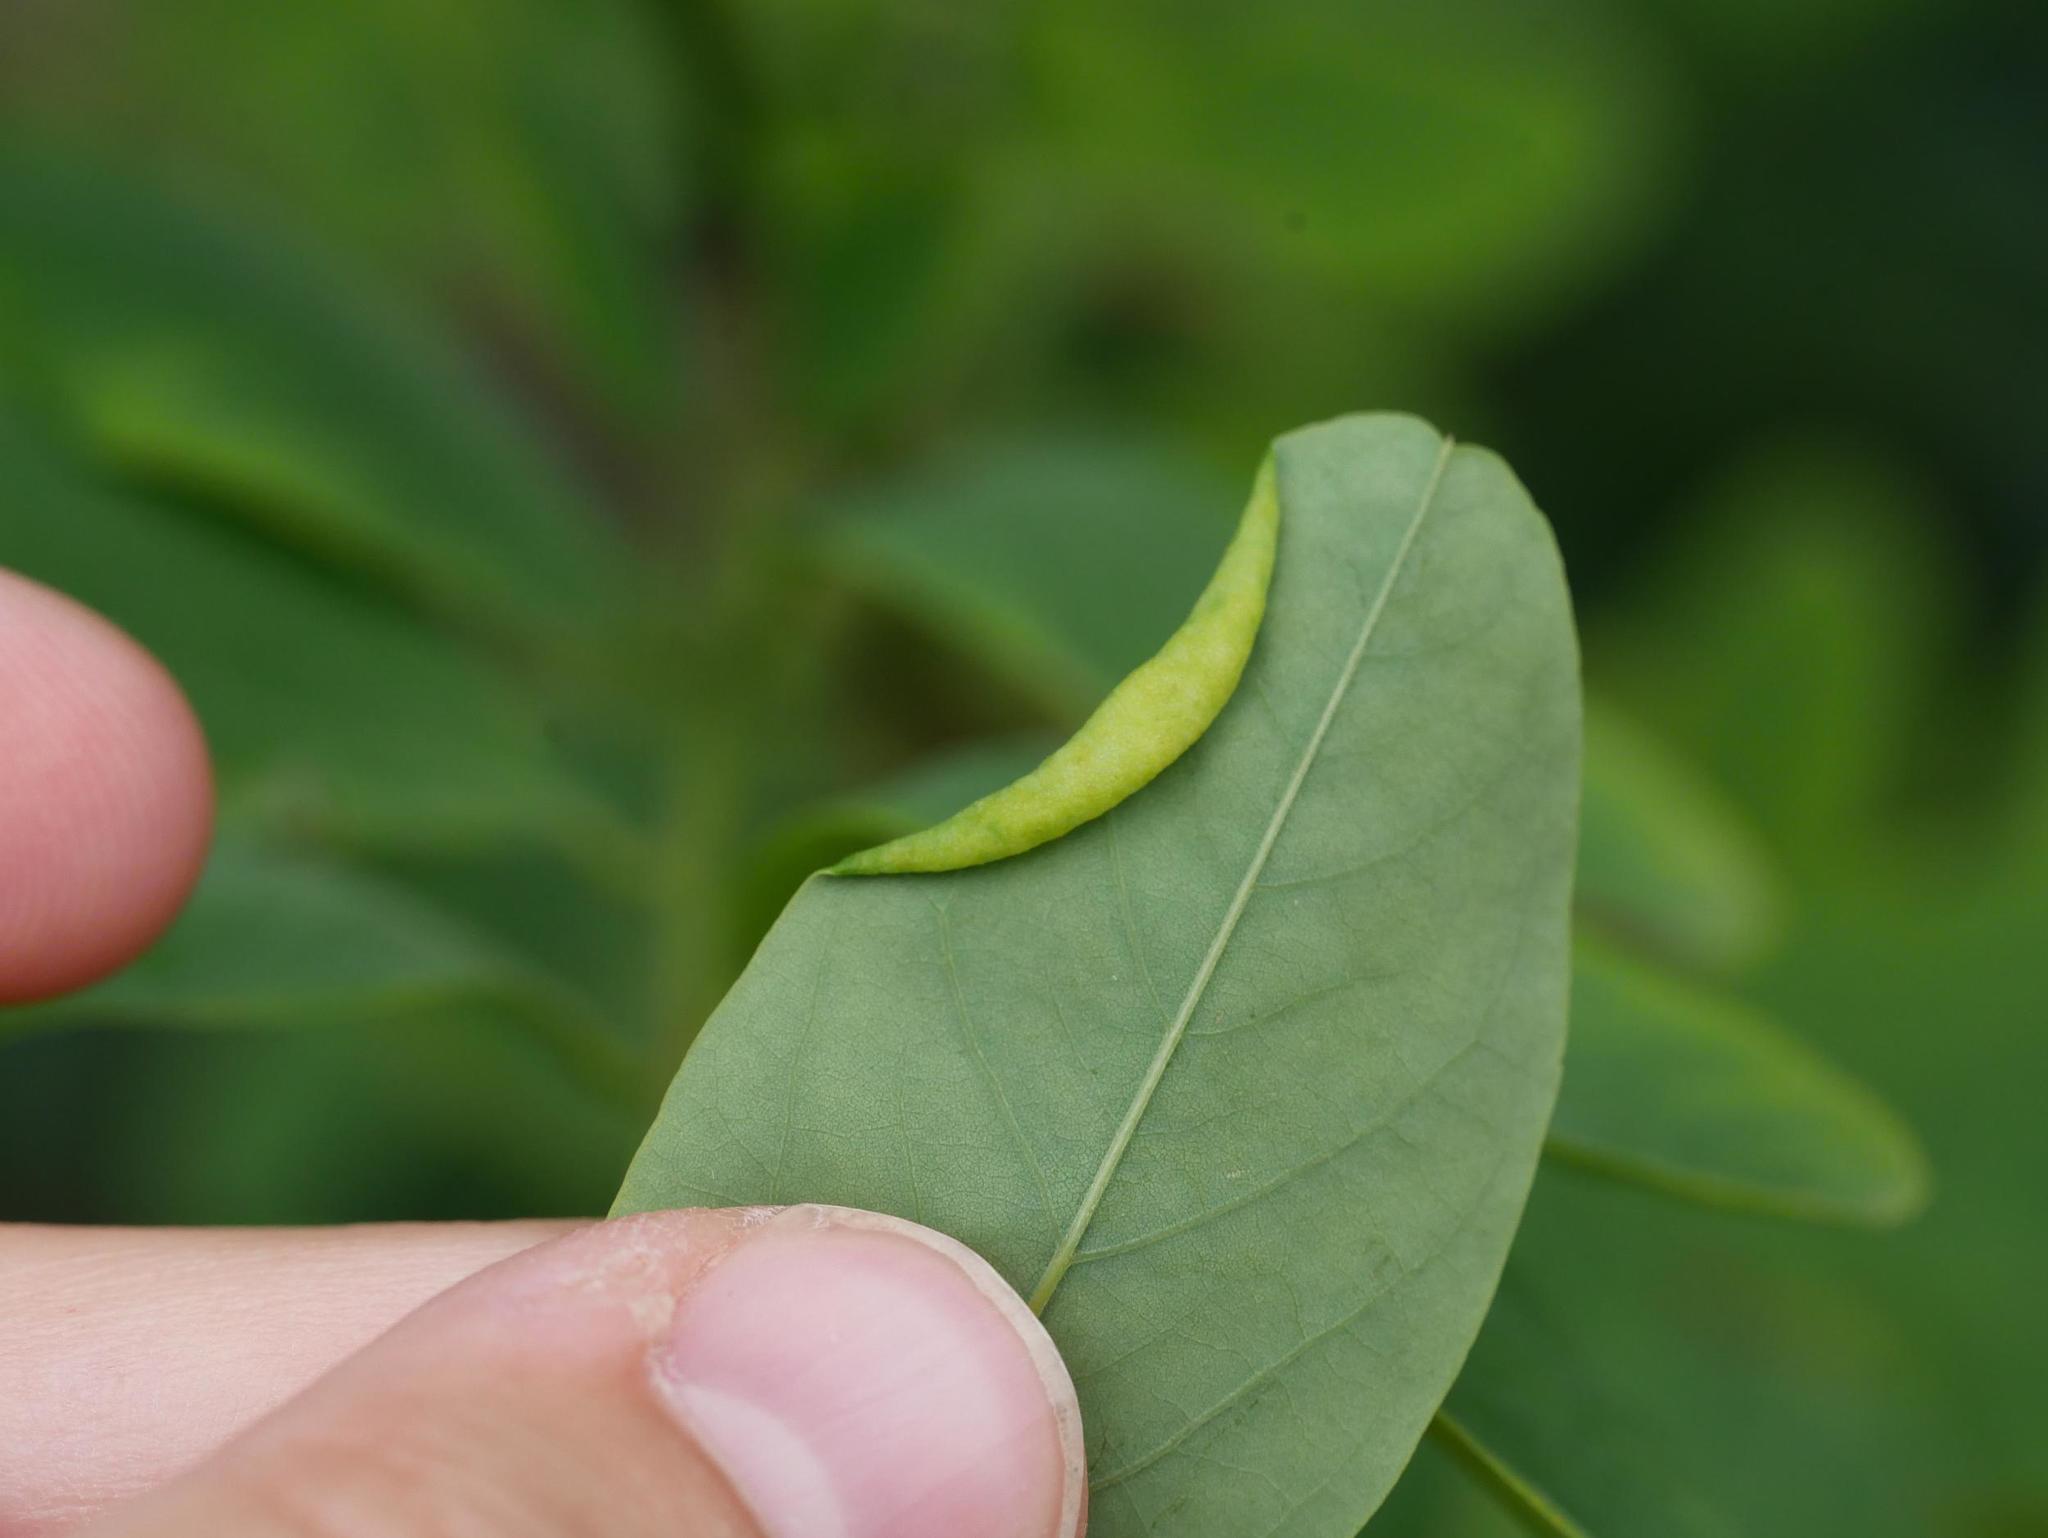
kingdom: Animalia
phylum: Arthropoda
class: Insecta
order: Diptera
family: Cecidomyiidae
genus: Obolodiplosis
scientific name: Obolodiplosis robiniae
